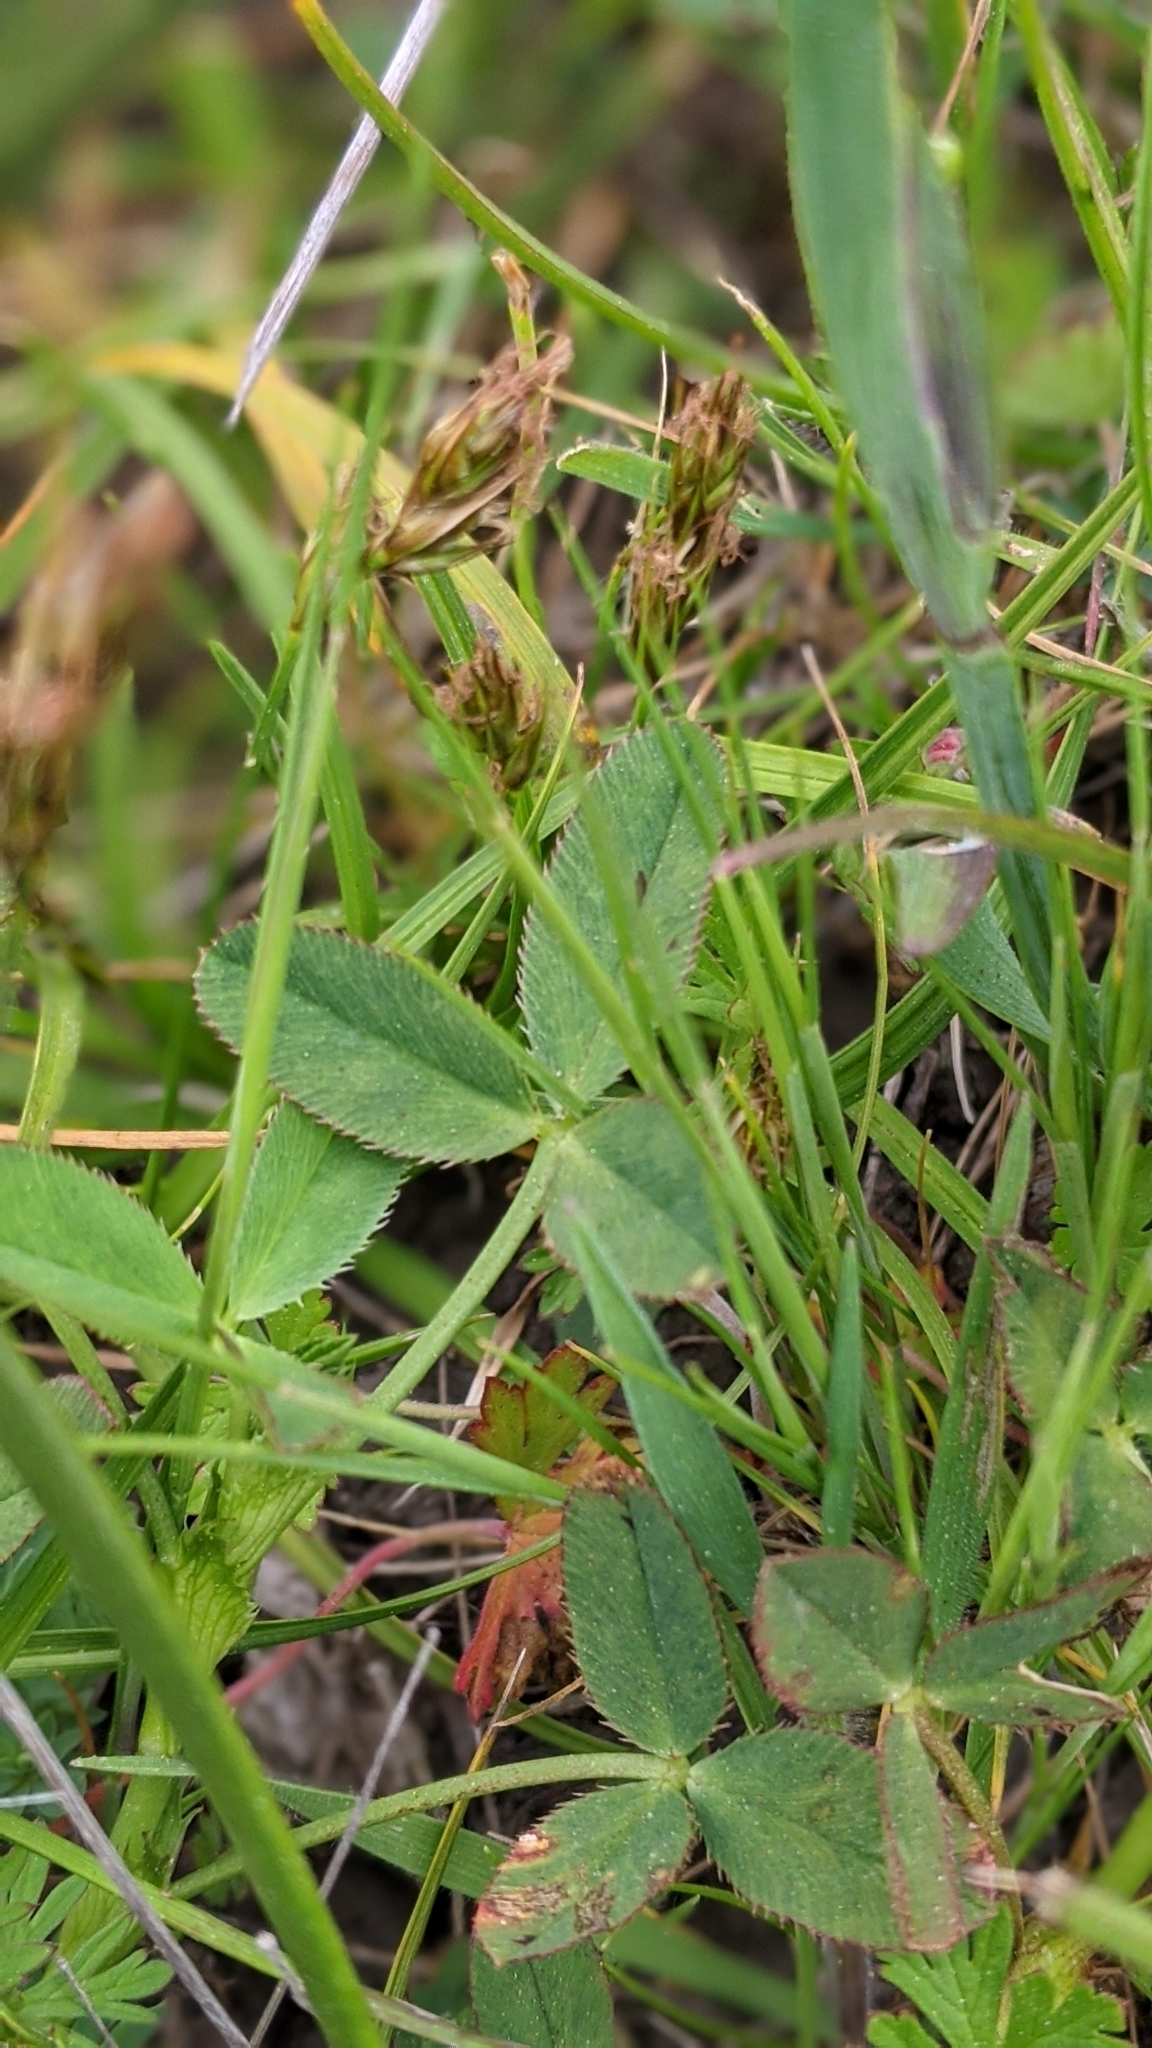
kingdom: Plantae
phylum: Tracheophyta
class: Magnoliopsida
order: Fabales
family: Fabaceae
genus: Trifolium
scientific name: Trifolium wormskioldii
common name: Springbank clover
